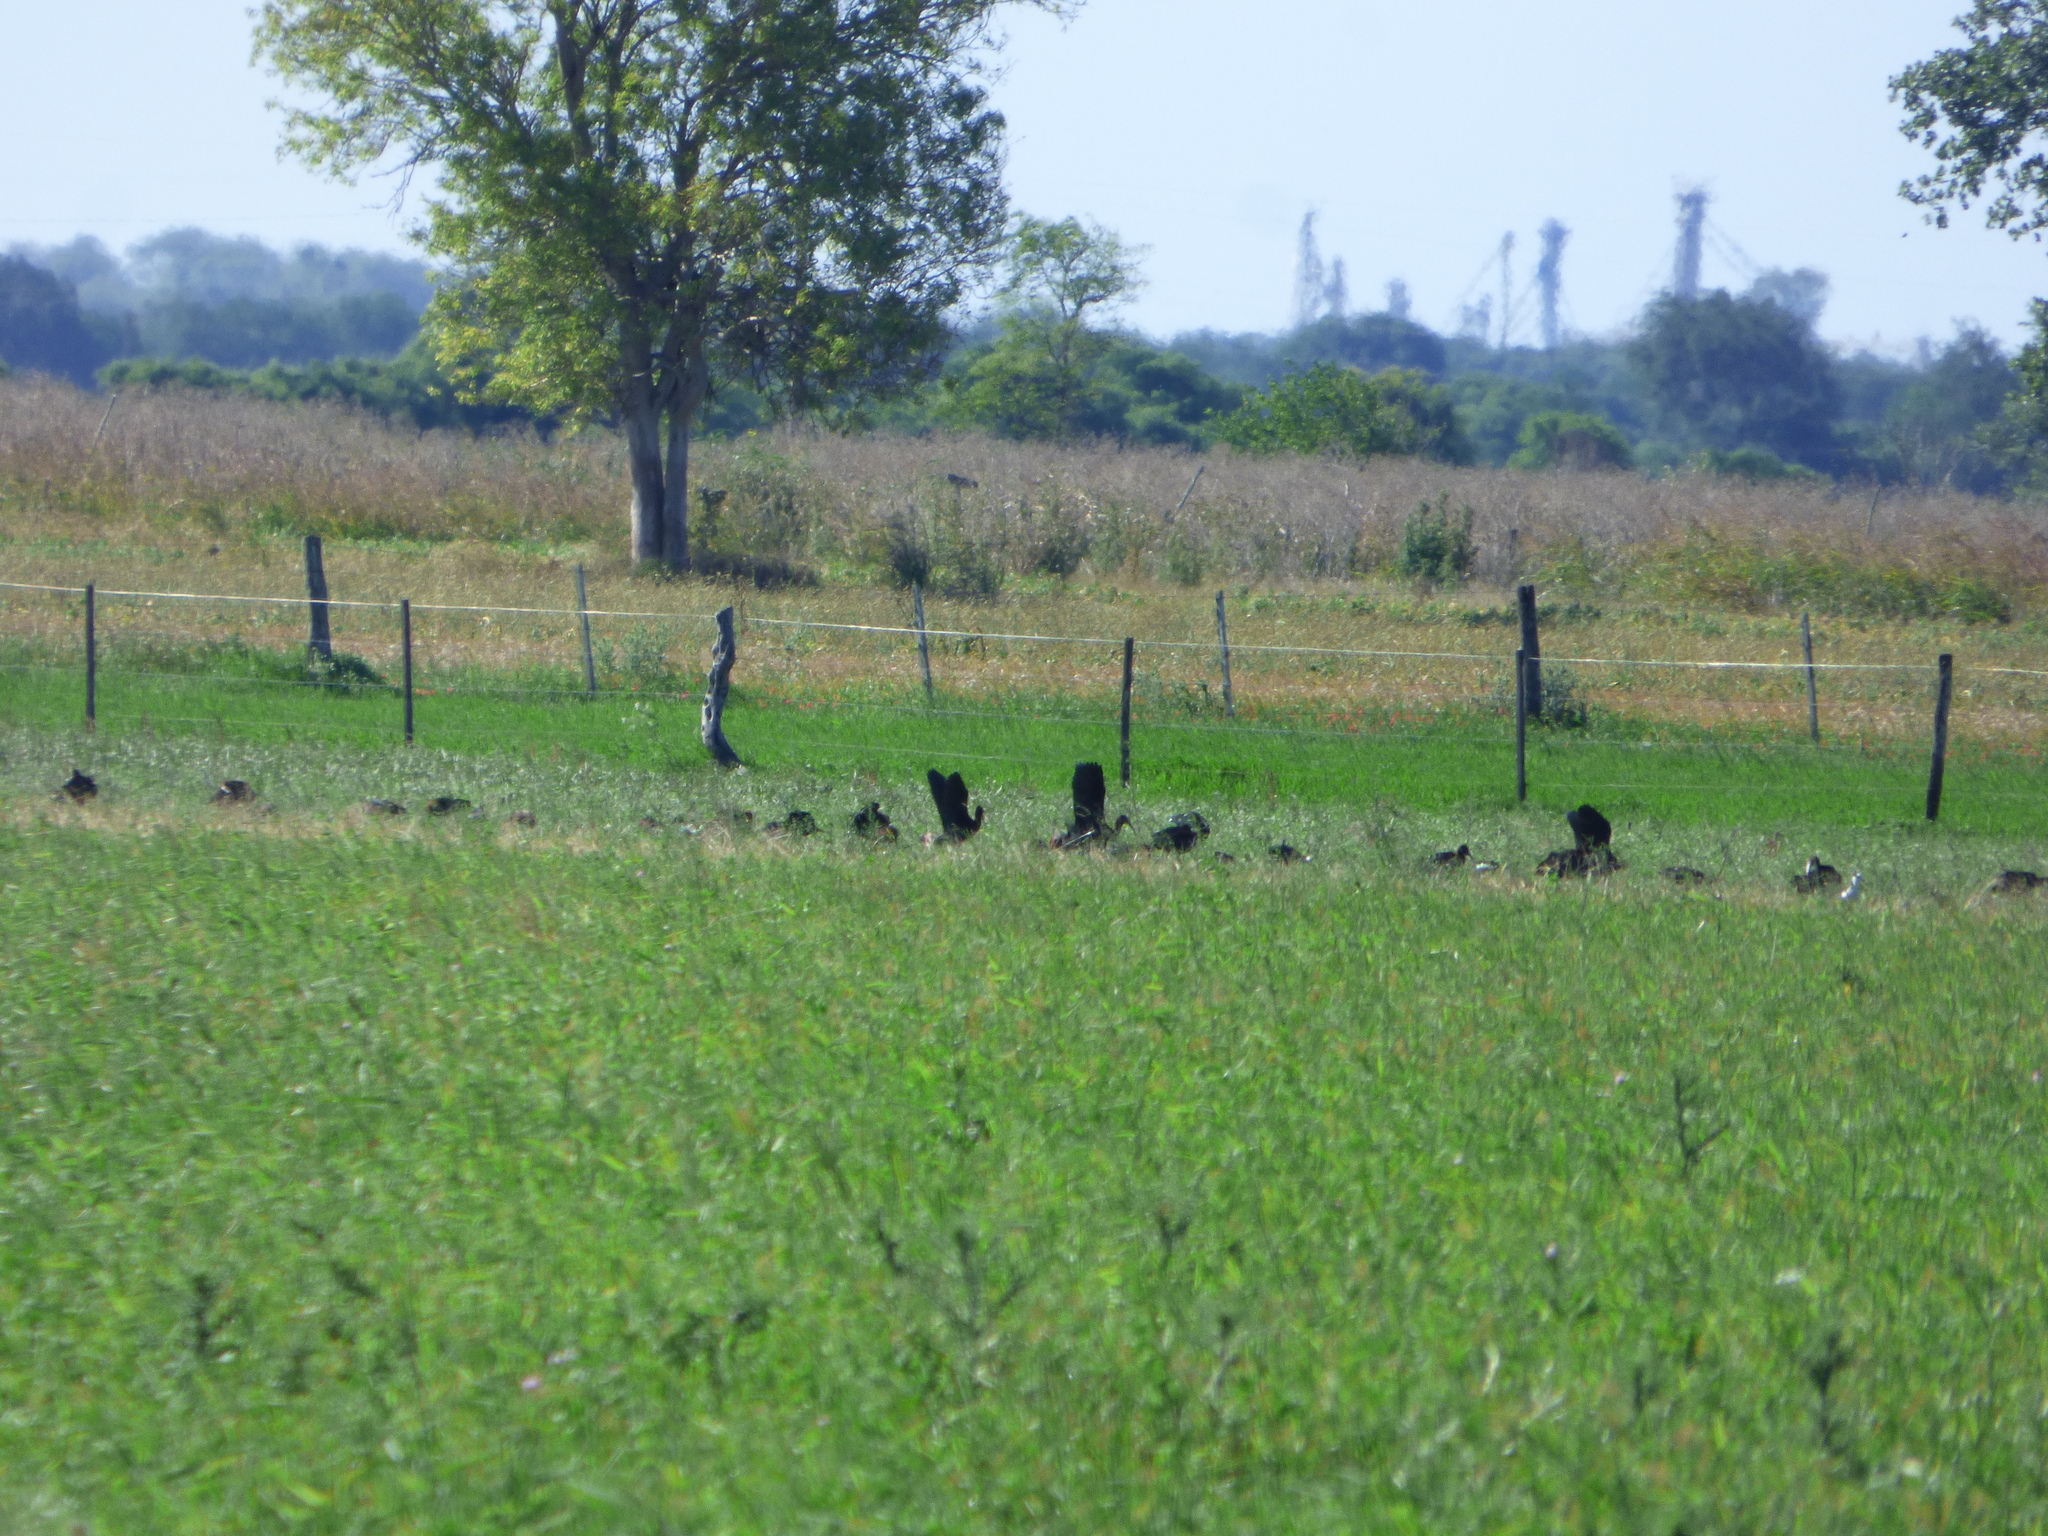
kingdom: Animalia
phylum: Chordata
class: Aves
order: Pelecaniformes
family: Threskiornithidae
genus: Plegadis
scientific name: Plegadis chihi
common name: White-faced ibis
